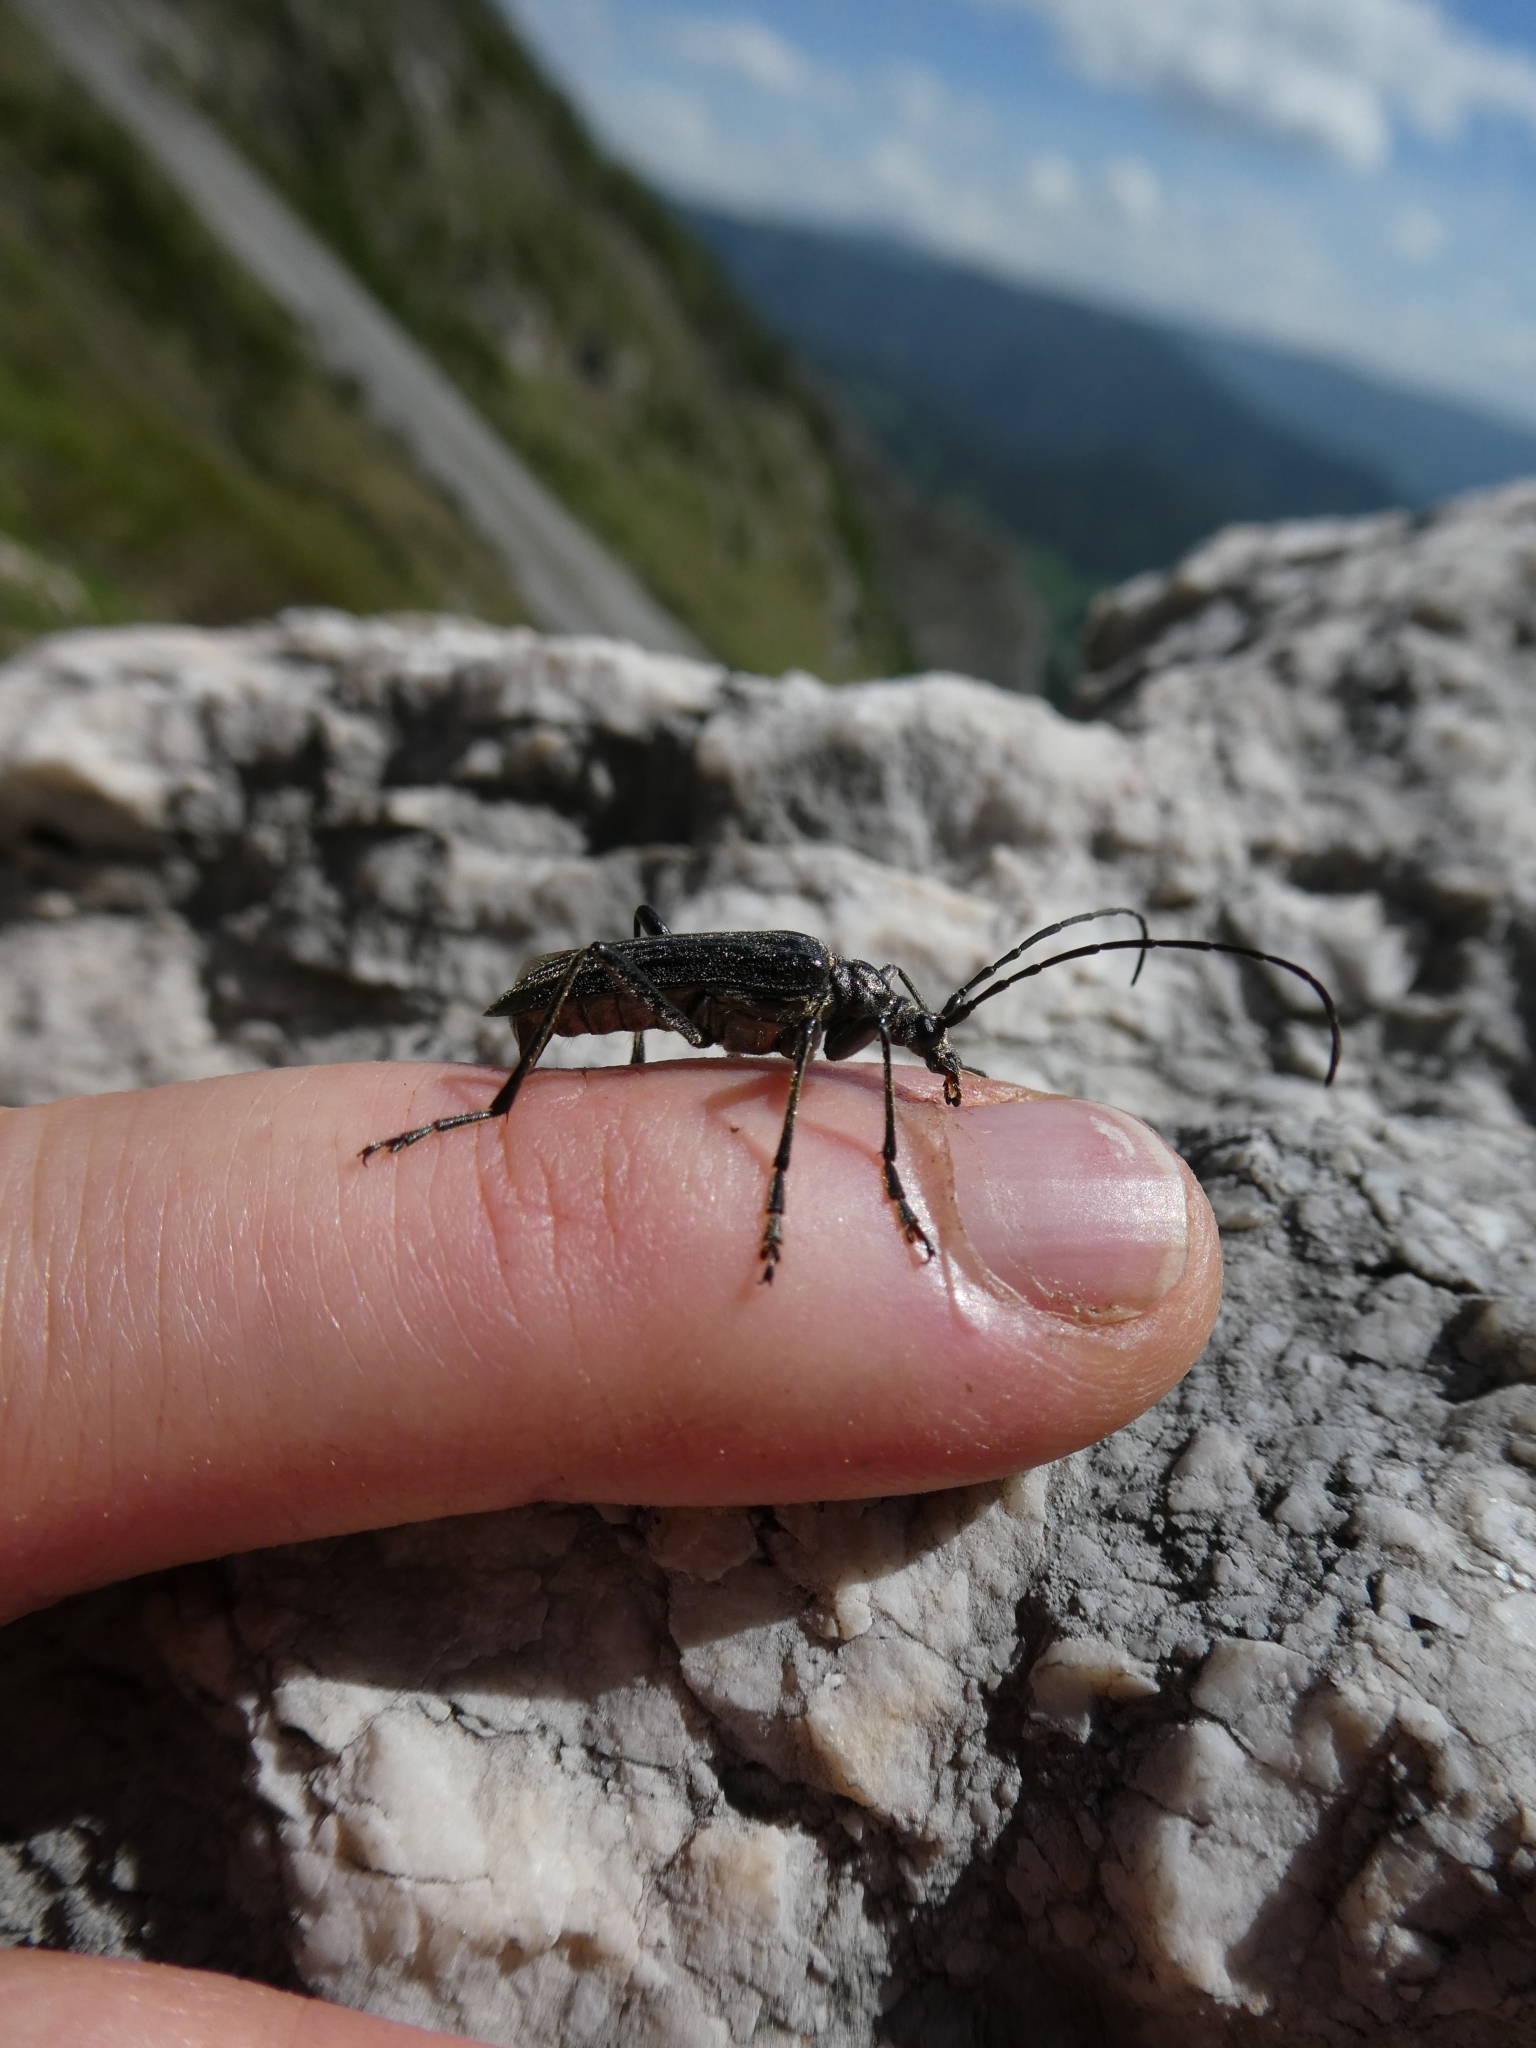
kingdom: Animalia
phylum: Arthropoda
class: Insecta
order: Coleoptera
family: Cerambycidae
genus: Oxymirus
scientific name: Oxymirus cursor
